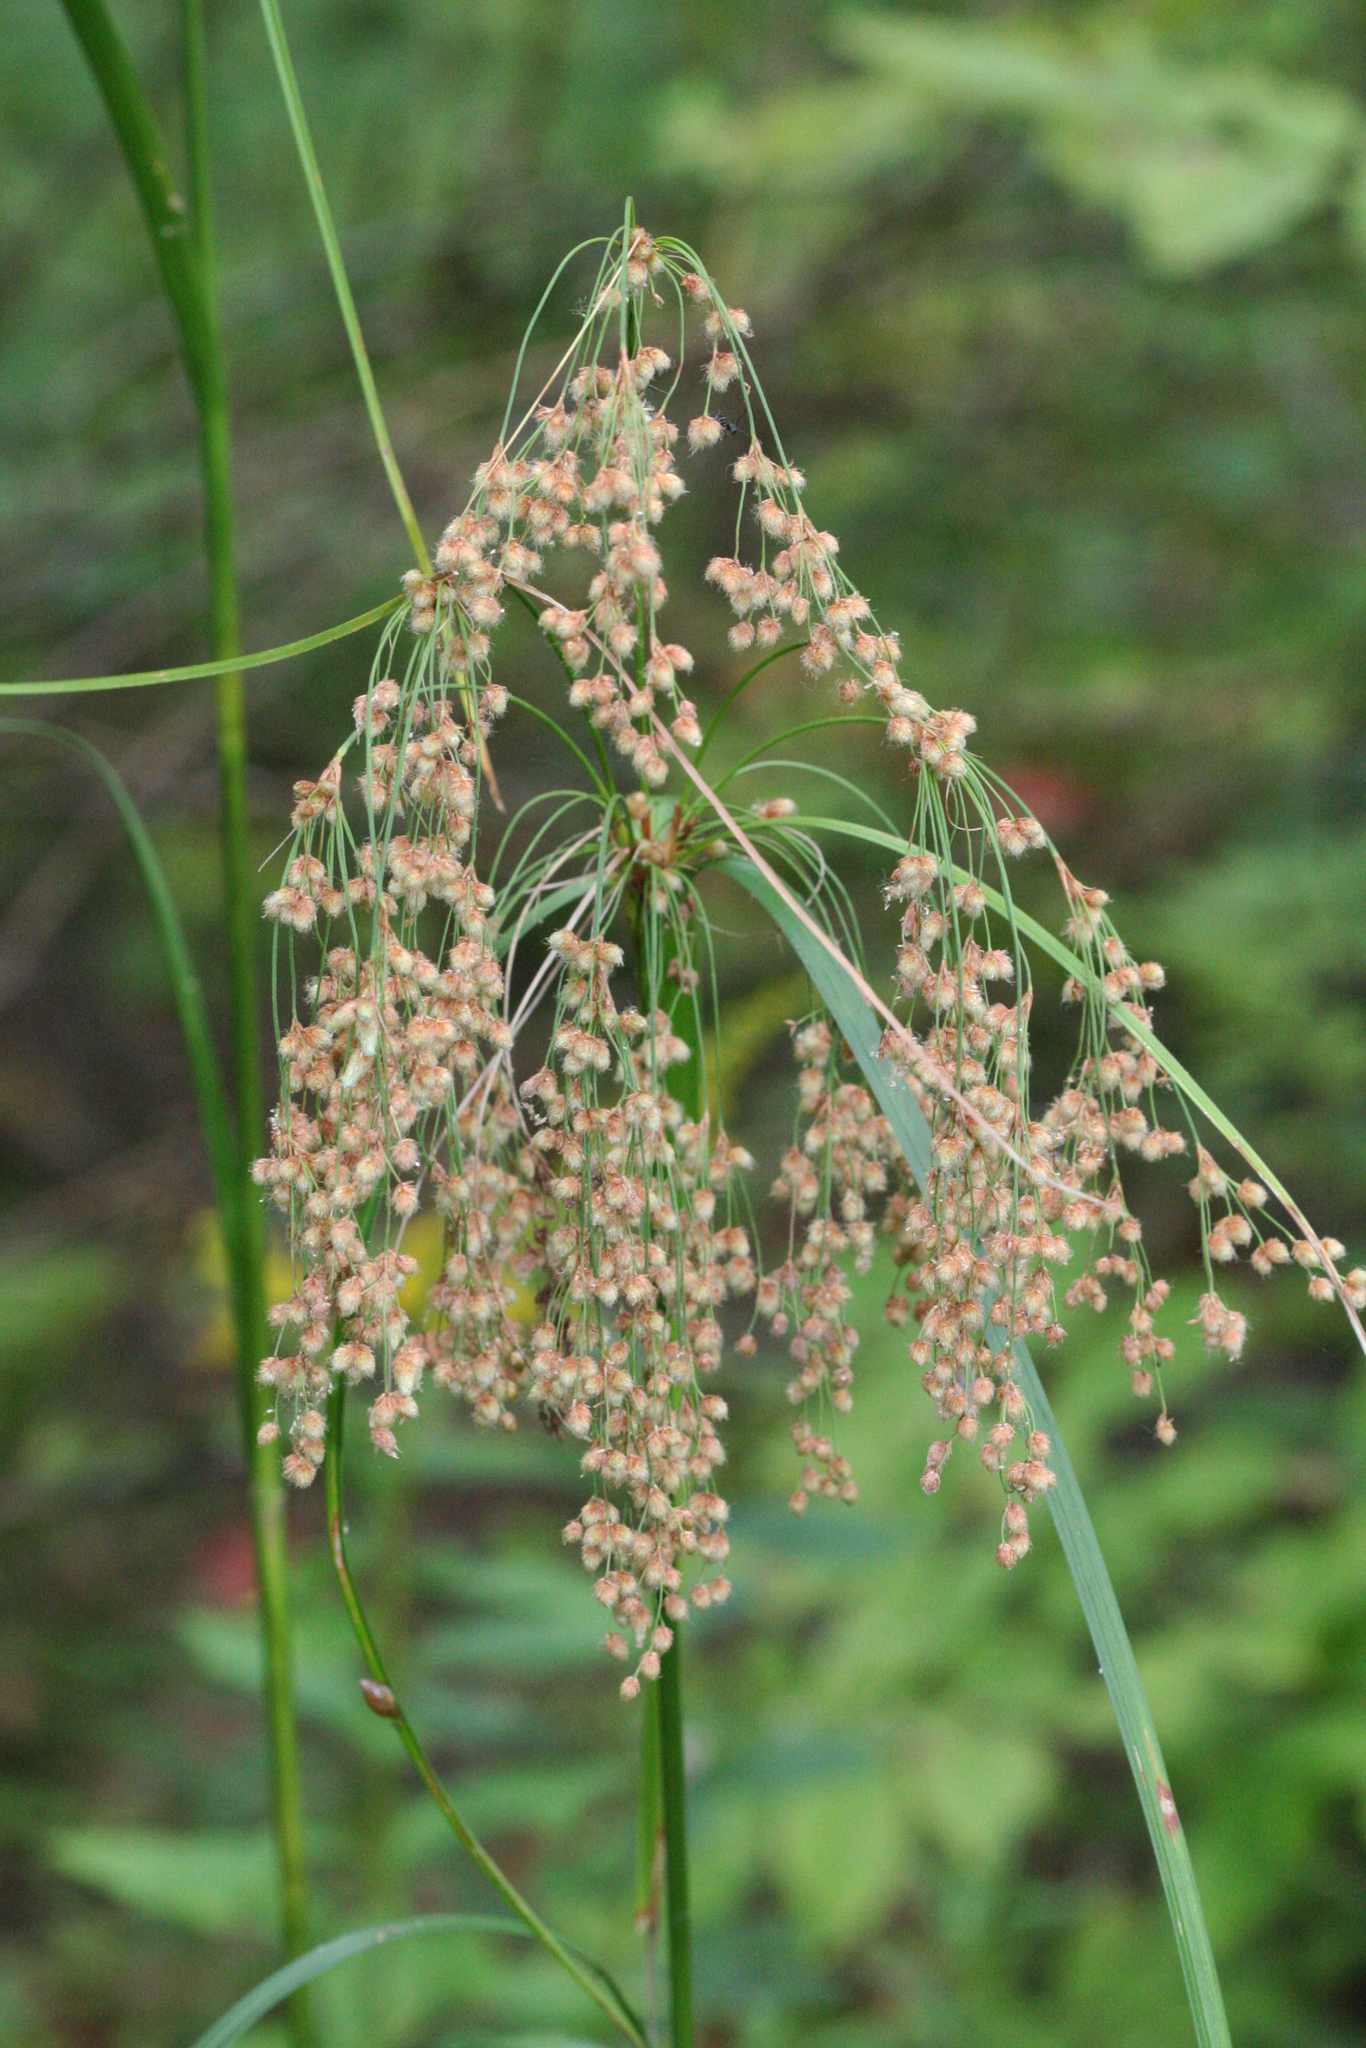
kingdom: Plantae
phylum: Tracheophyta
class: Liliopsida
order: Poales
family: Cyperaceae
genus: Scirpus
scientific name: Scirpus cyperinus
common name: Black-sheathed bulrush
